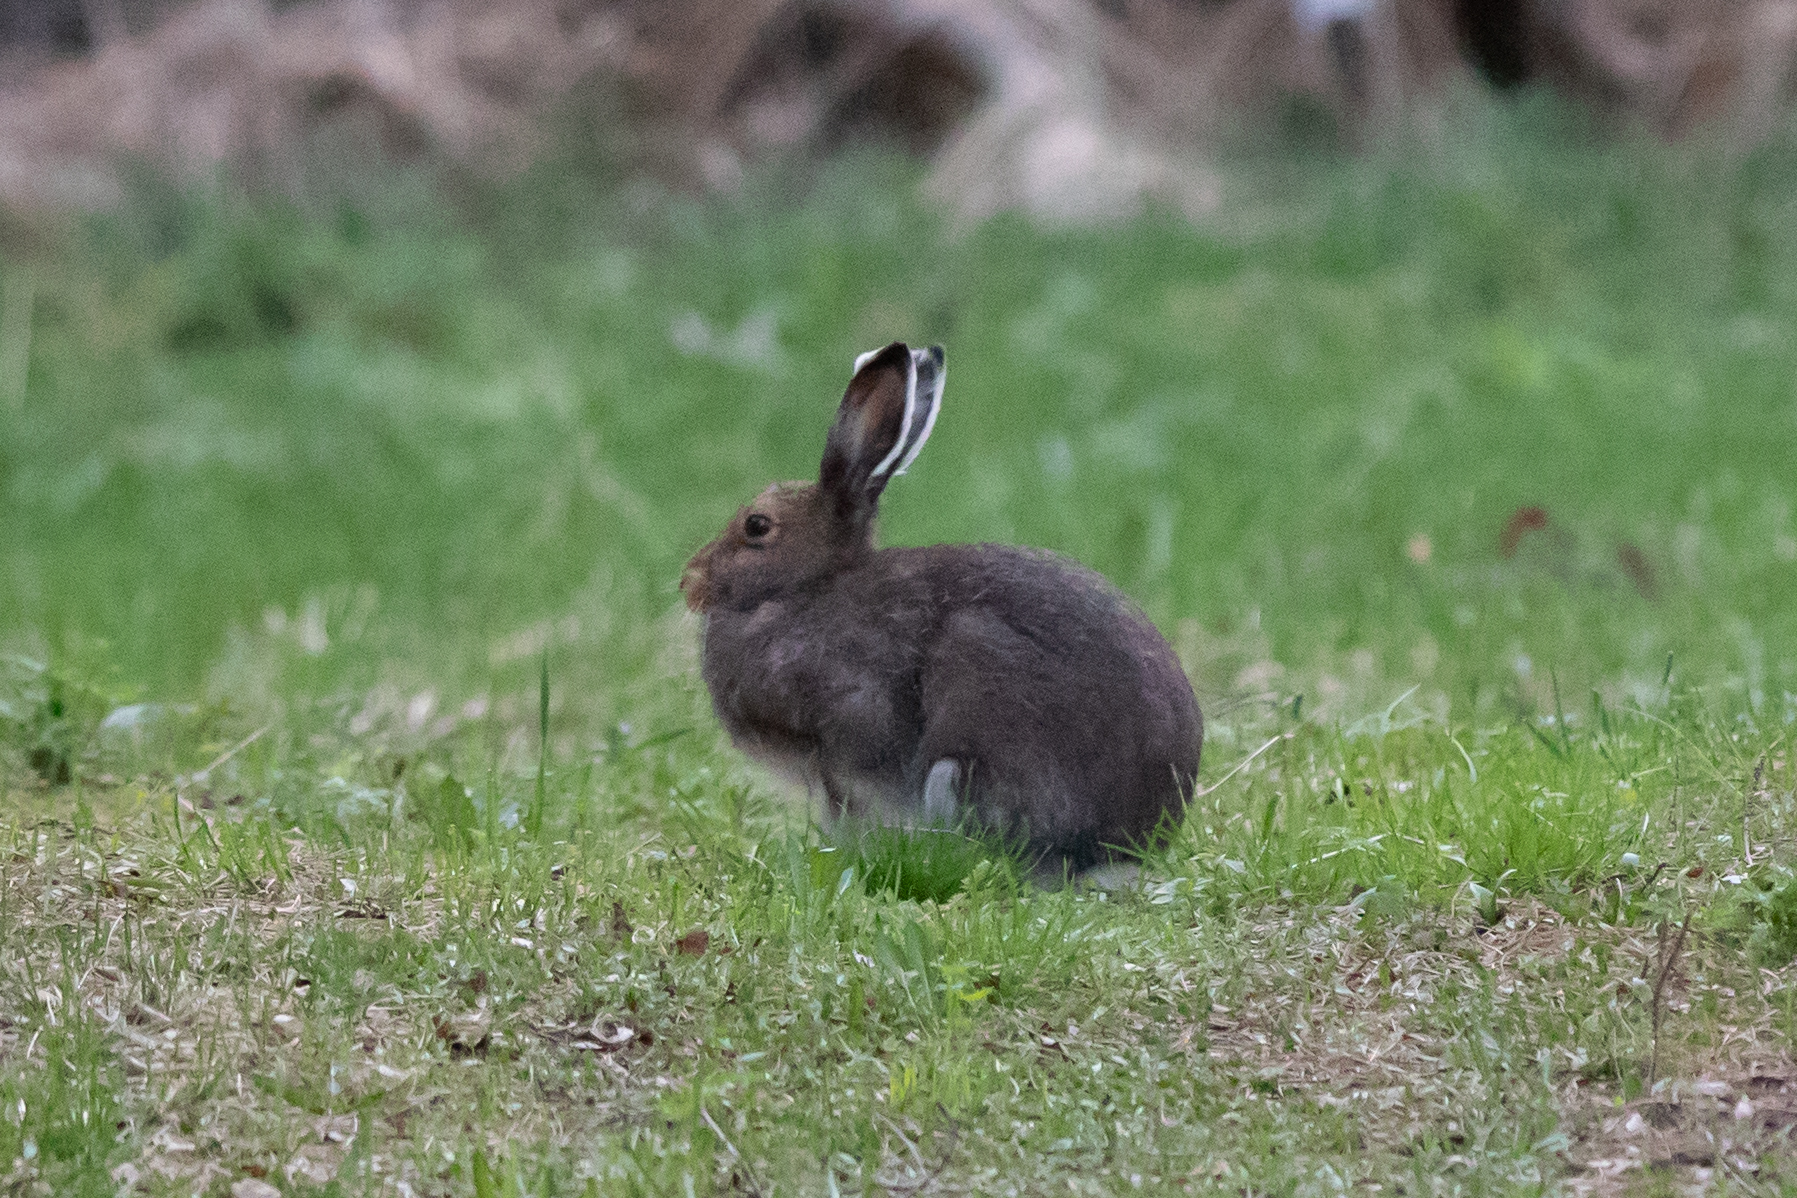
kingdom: Animalia
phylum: Chordata
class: Mammalia
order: Lagomorpha
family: Leporidae
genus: Lepus
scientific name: Lepus timidus
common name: Mountain hare
